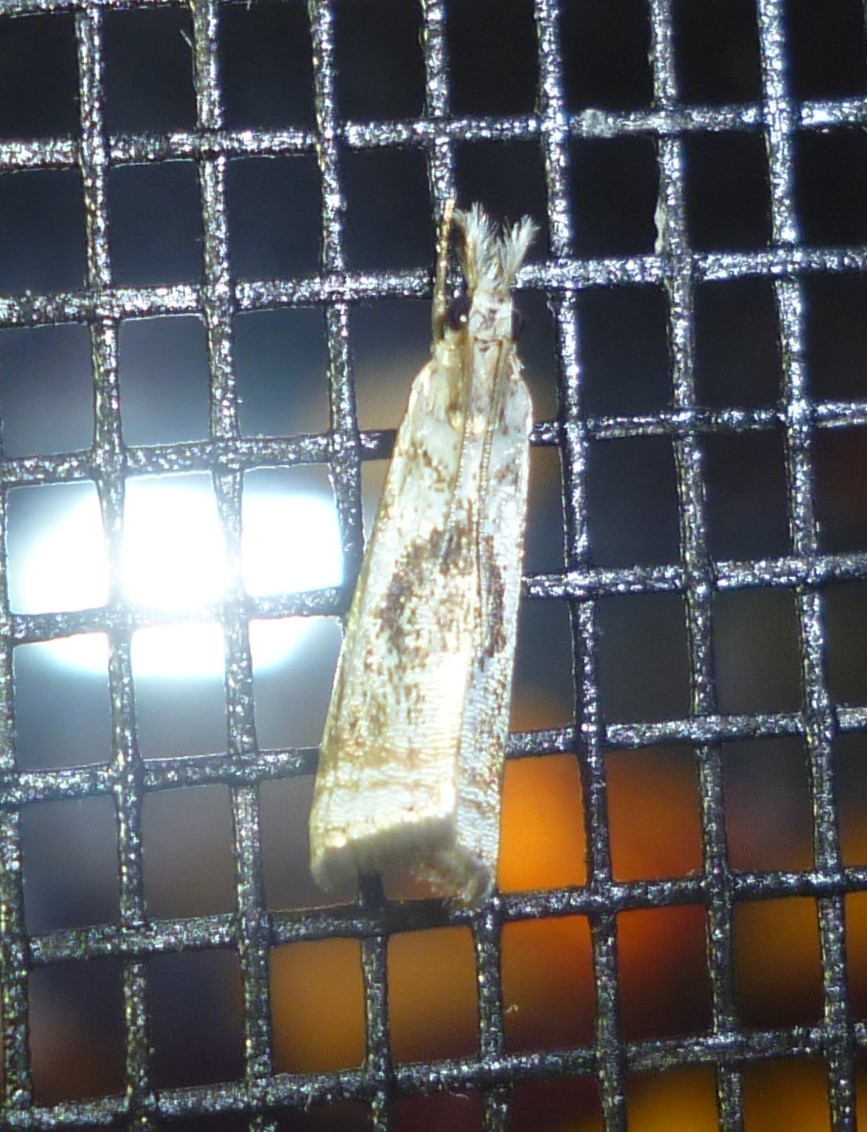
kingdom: Animalia
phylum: Arthropoda
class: Insecta
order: Lepidoptera
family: Crambidae
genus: Microcrambus
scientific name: Microcrambus elegans
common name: Elegant grass-veneer
